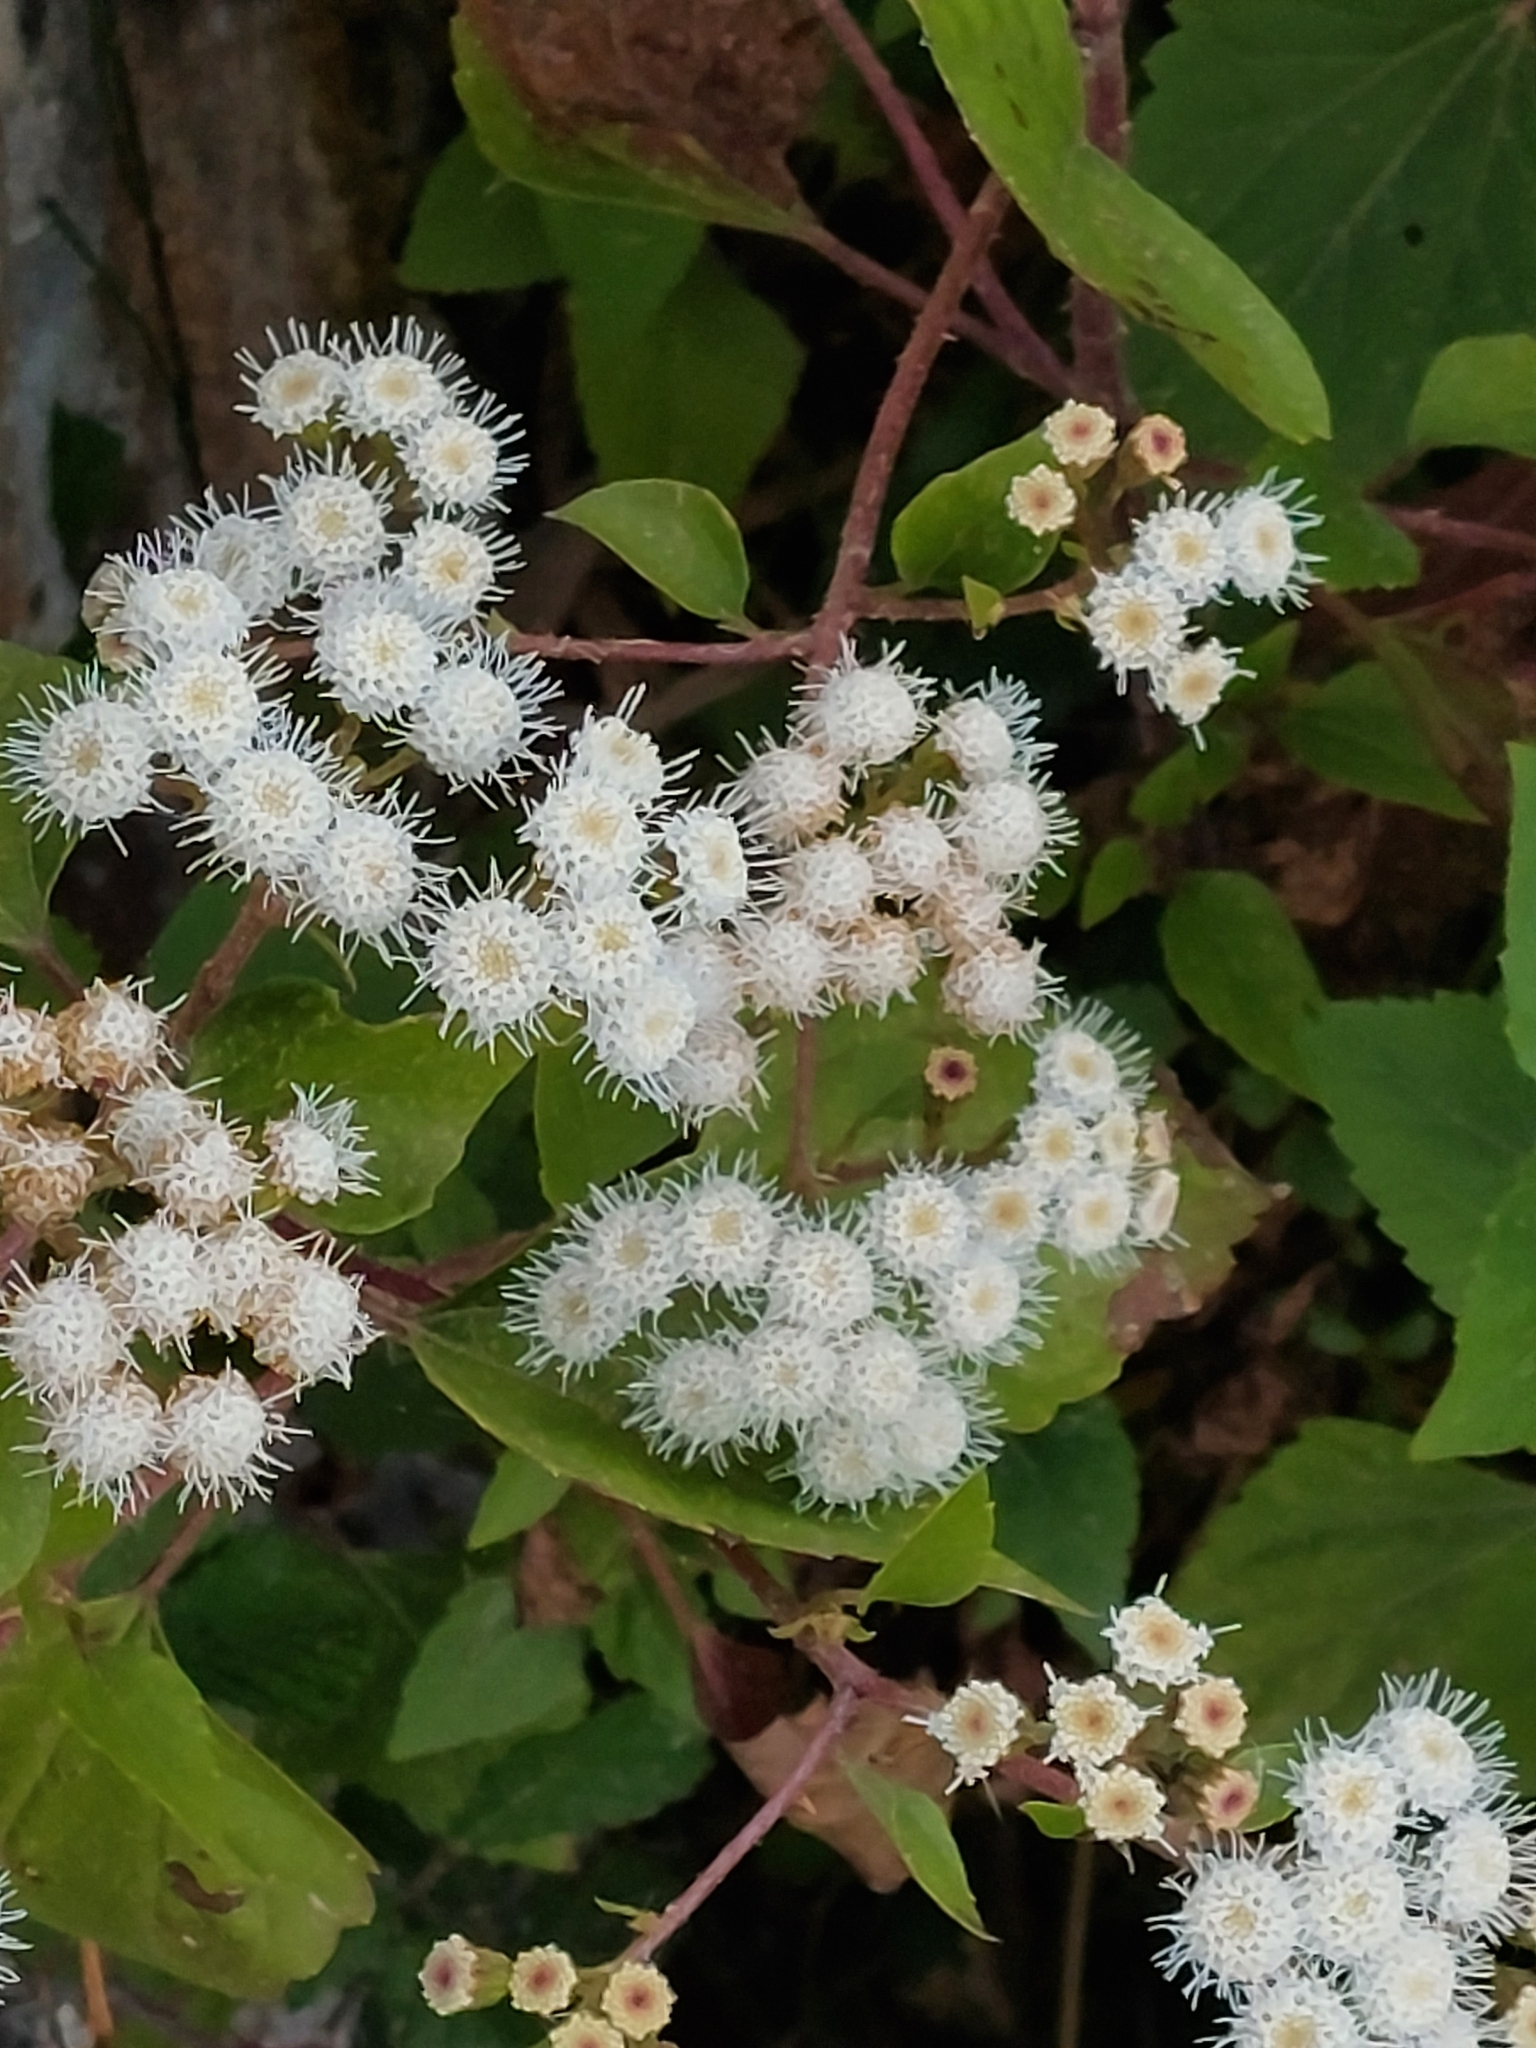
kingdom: Plantae
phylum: Tracheophyta
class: Magnoliopsida
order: Asterales
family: Asteraceae
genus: Ageratina
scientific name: Ageratina adenophora
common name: Sticky snakeroot
